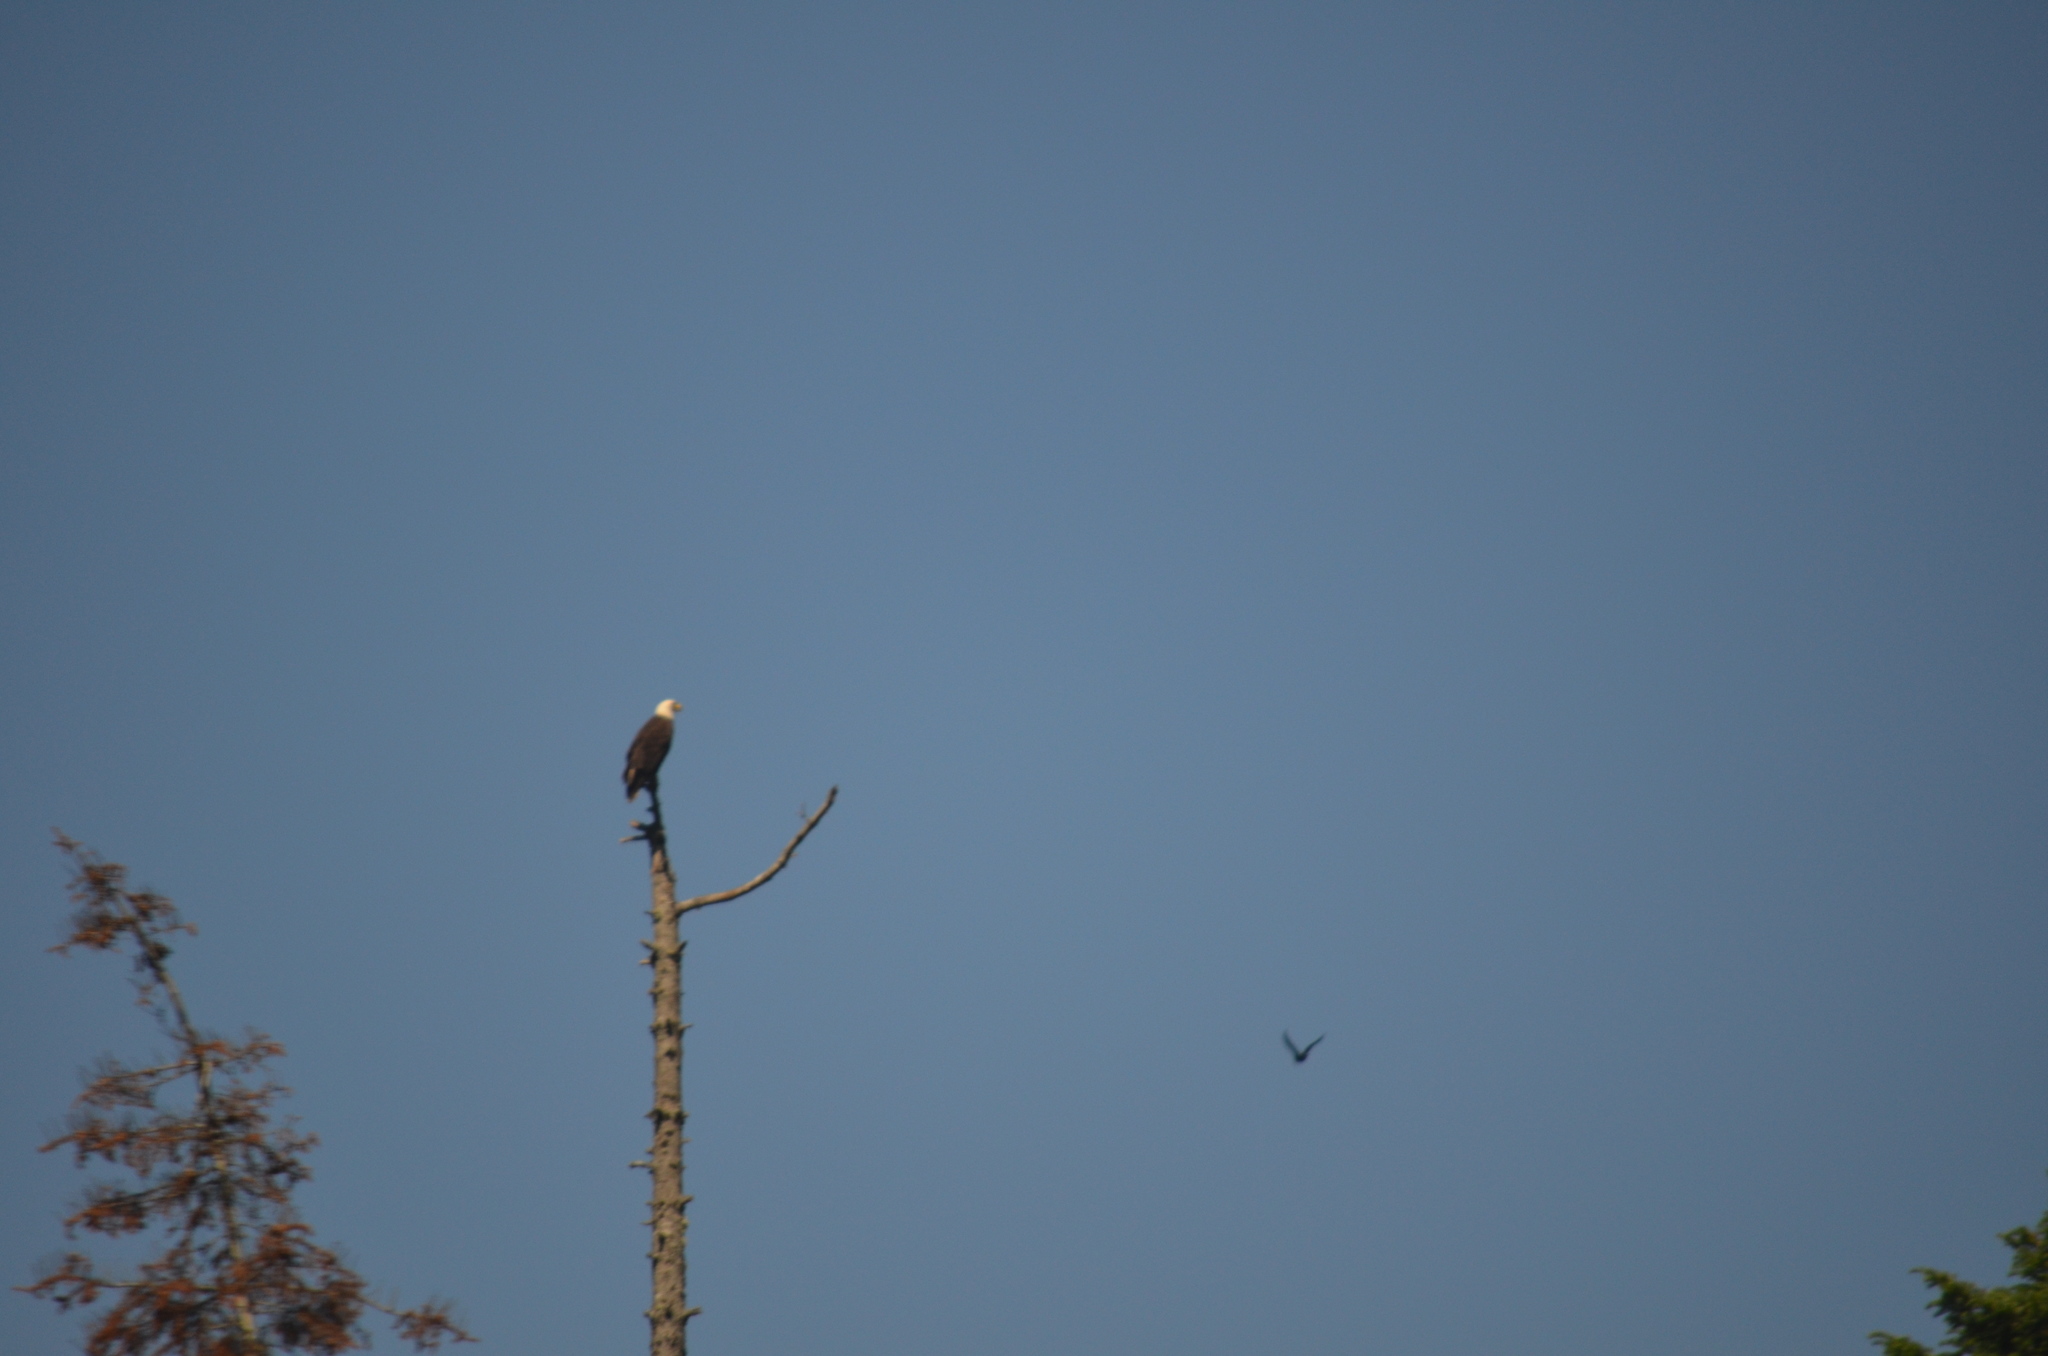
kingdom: Animalia
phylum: Chordata
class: Aves
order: Accipitriformes
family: Cathartidae
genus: Cathartes
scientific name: Cathartes aura
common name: Turkey vulture
